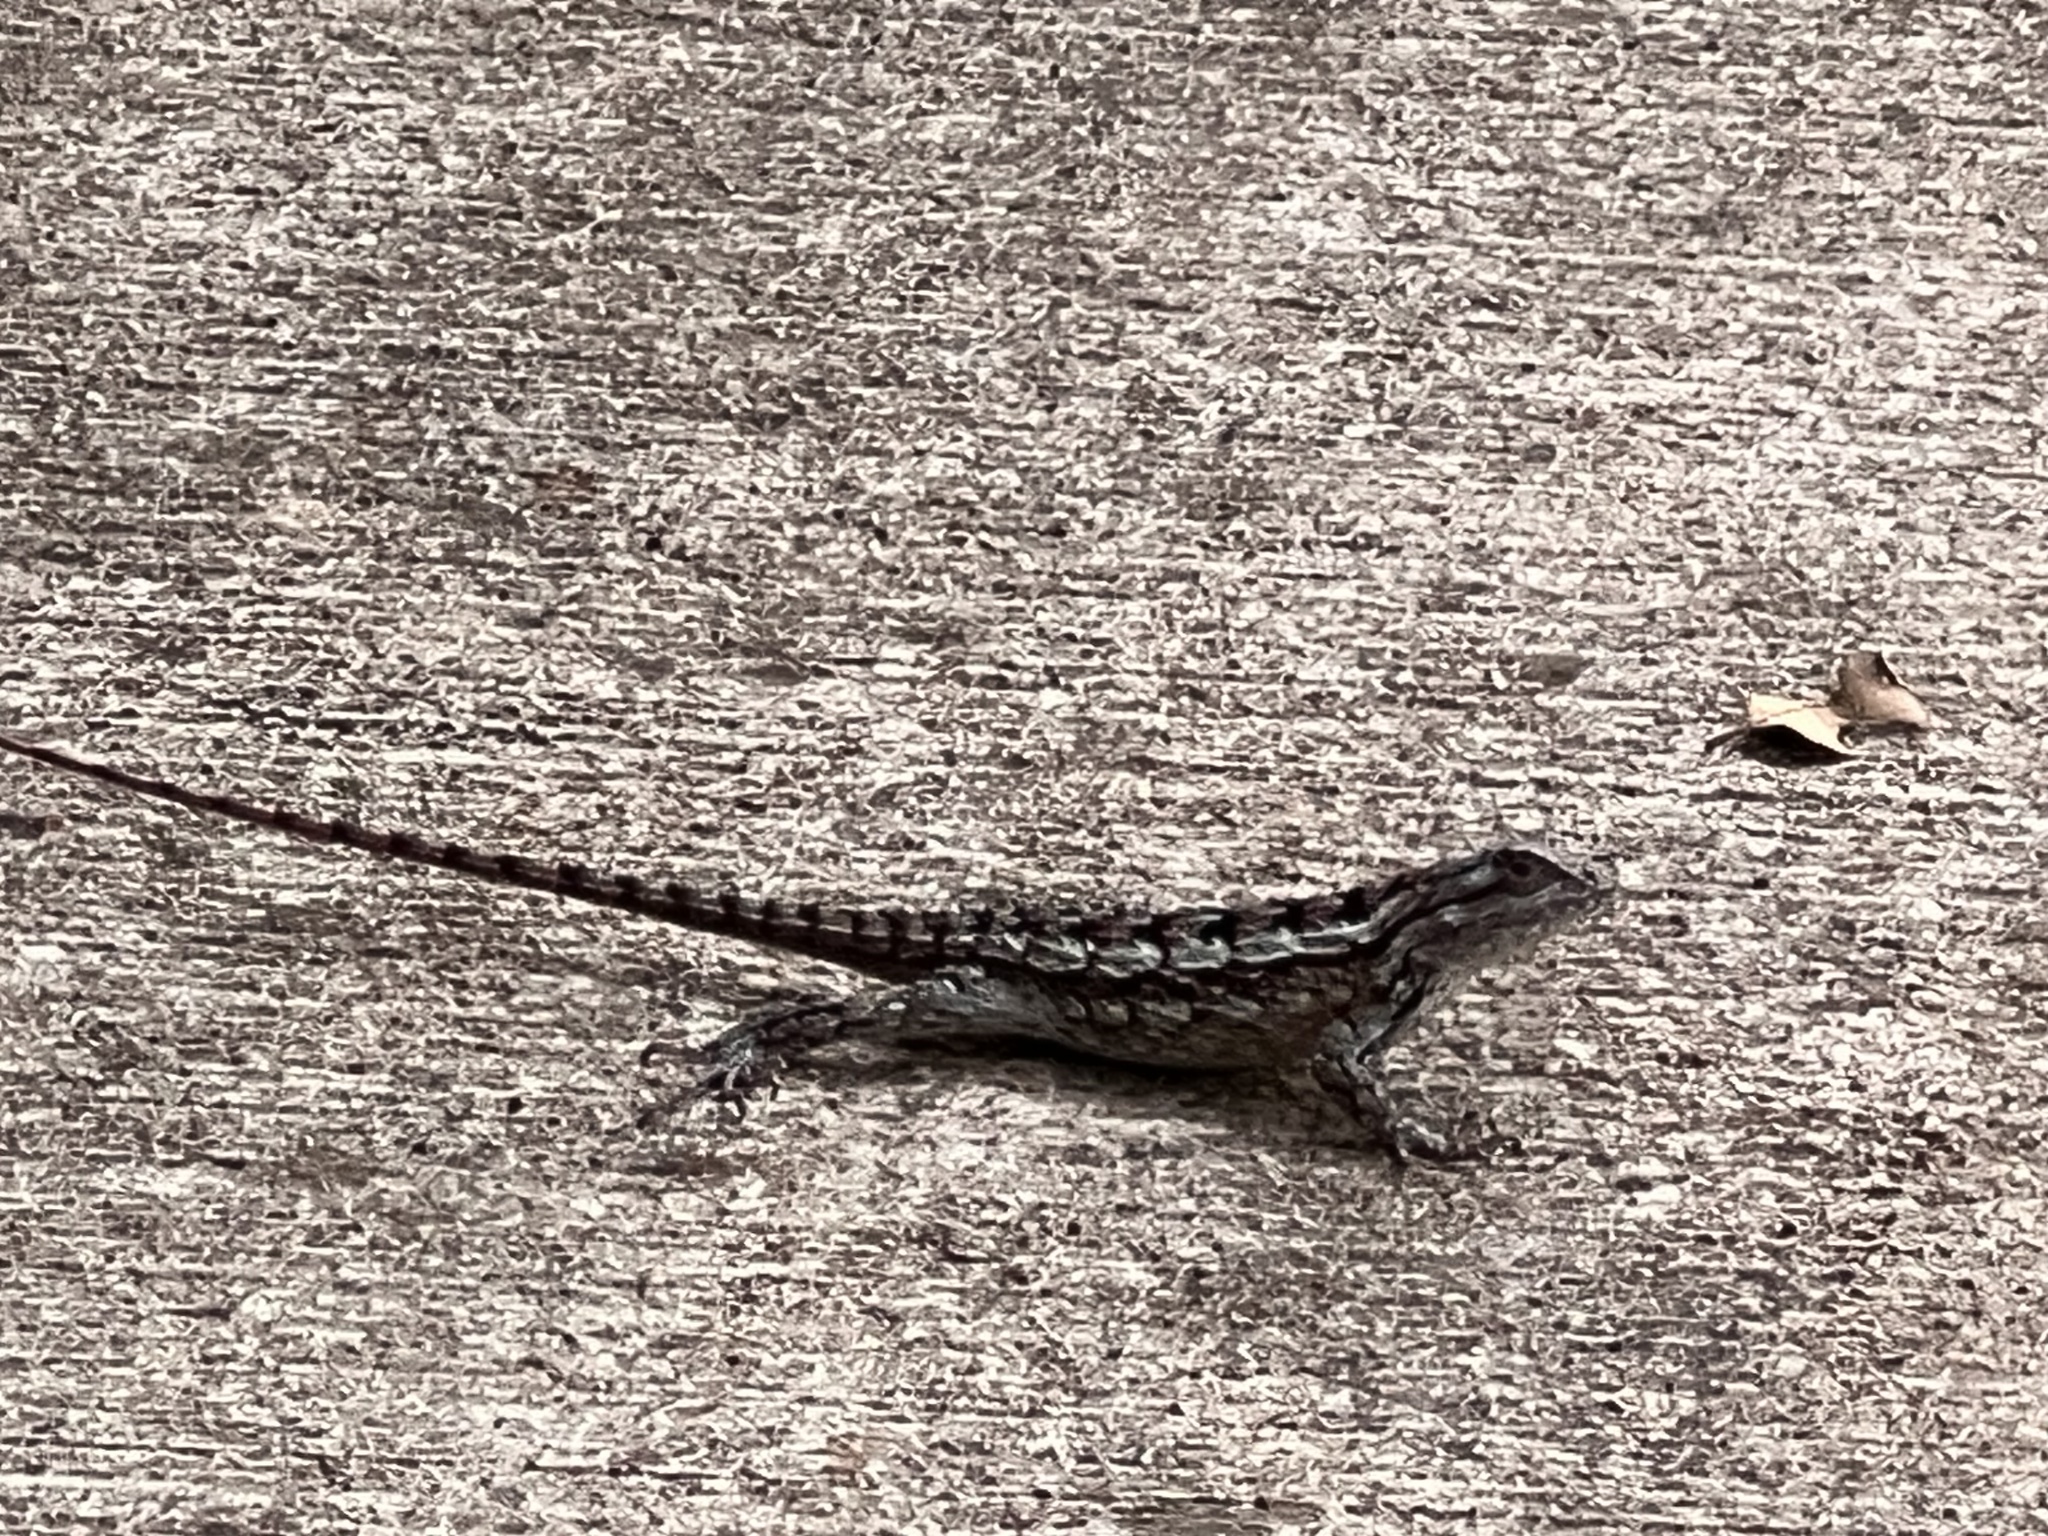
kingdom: Animalia
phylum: Chordata
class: Squamata
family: Phrynosomatidae
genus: Sceloporus
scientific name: Sceloporus olivaceus
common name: Texas spiny lizard
